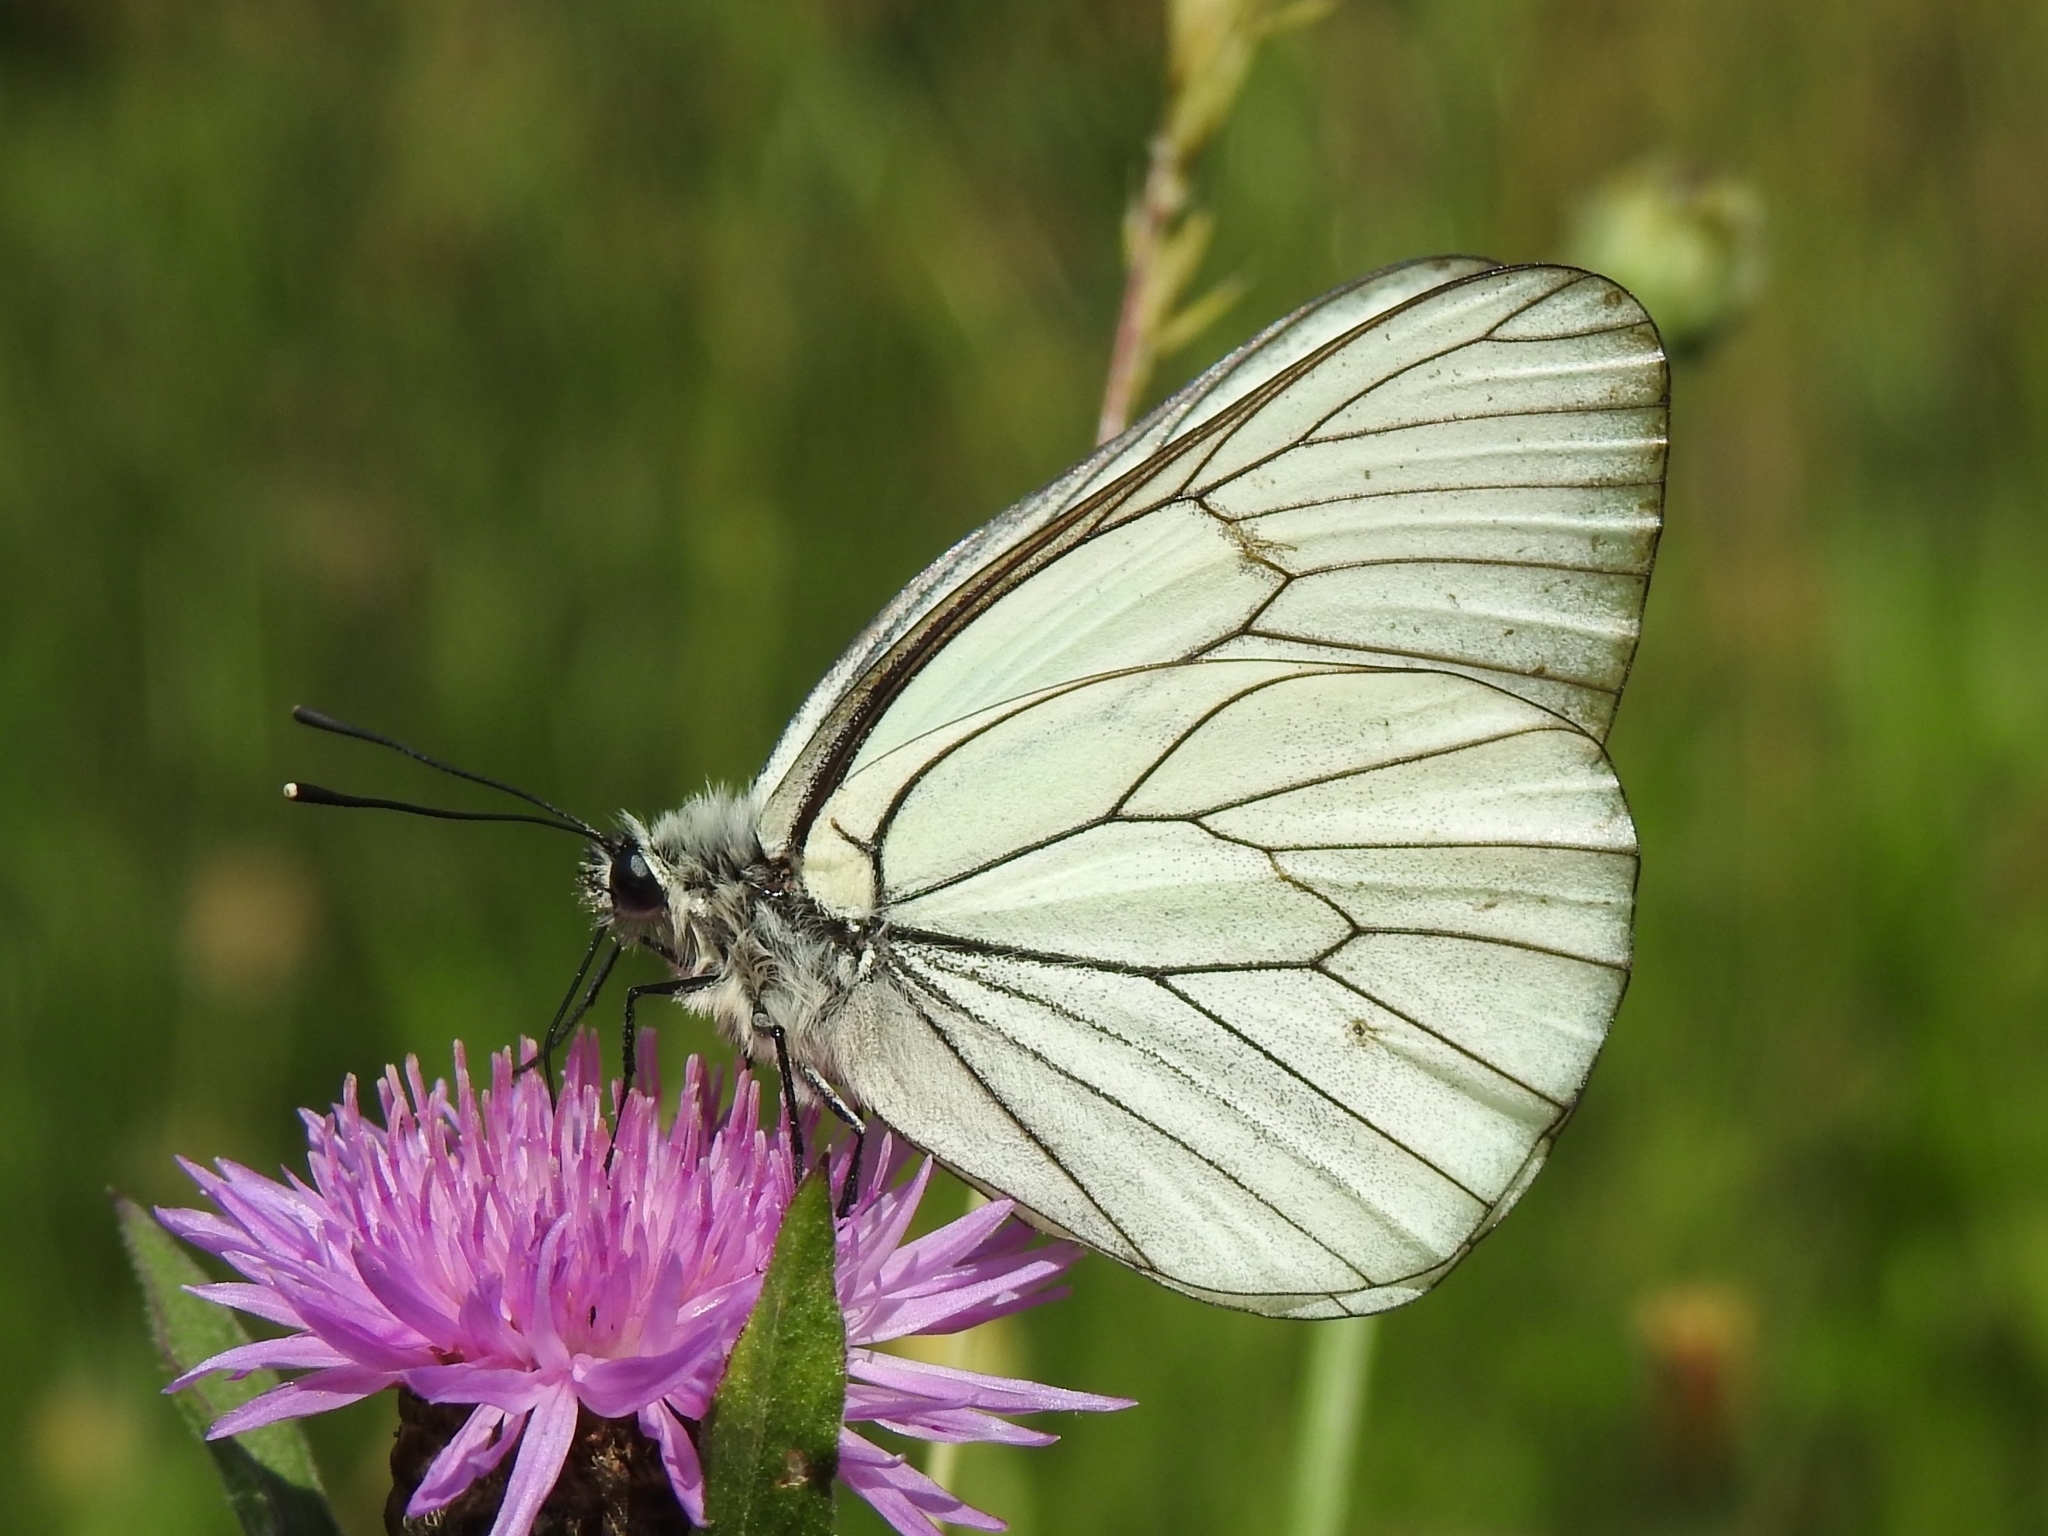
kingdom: Animalia
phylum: Arthropoda
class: Insecta
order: Lepidoptera
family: Pieridae
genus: Aporia
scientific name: Aporia crataegi
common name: Black-veined white
